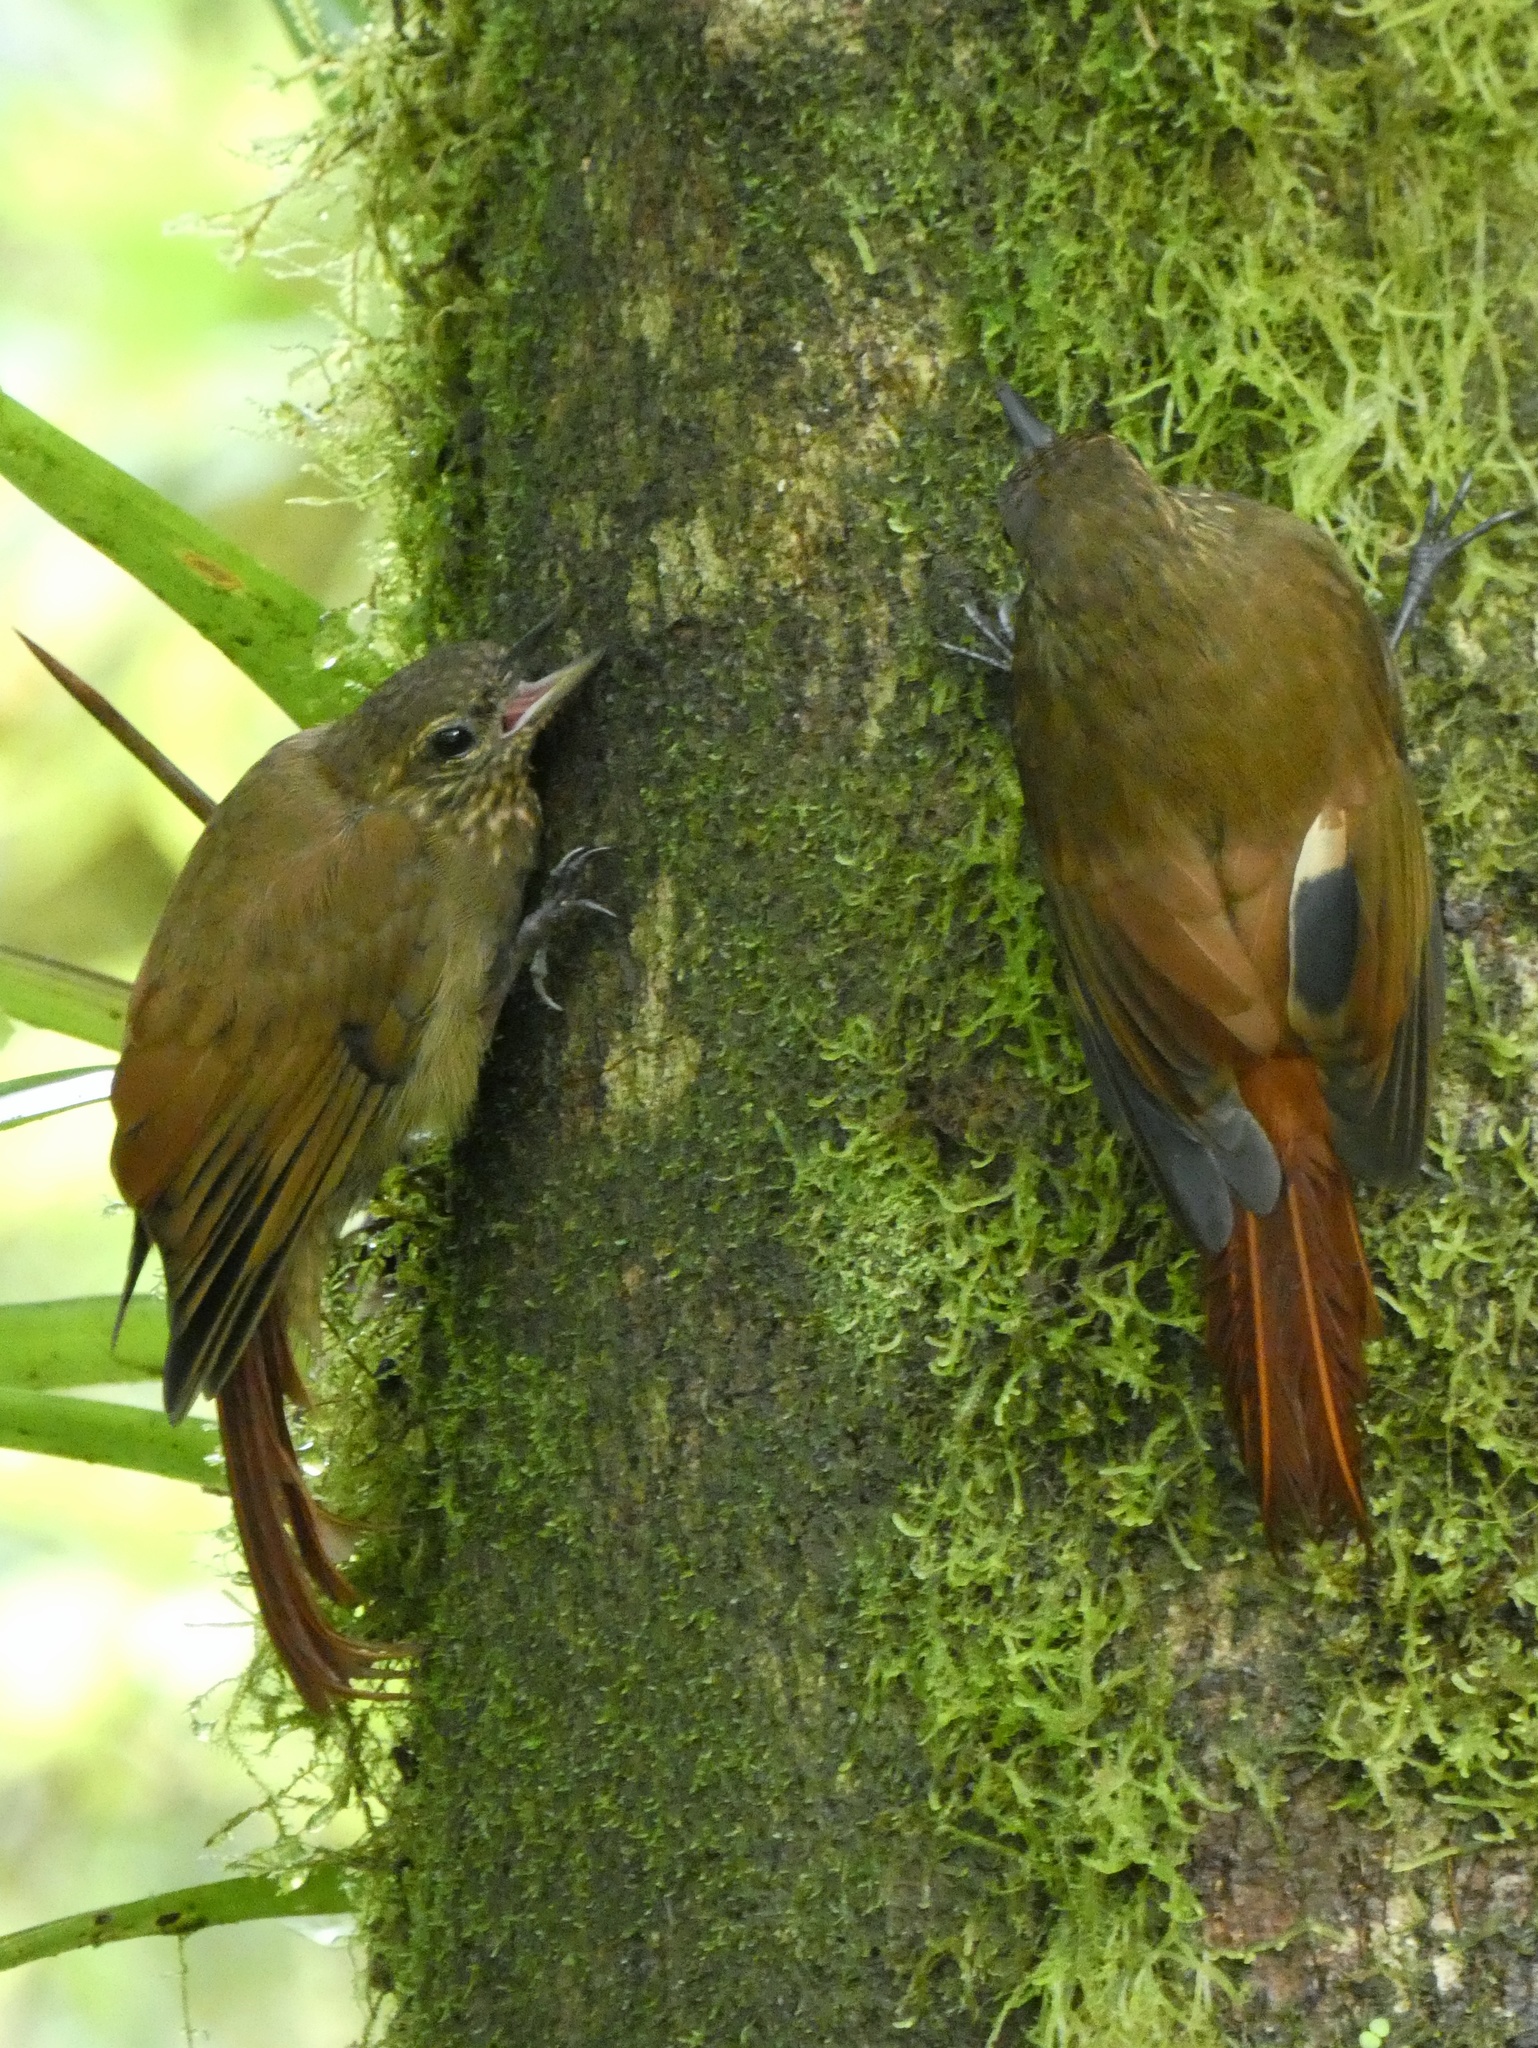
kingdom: Animalia
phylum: Chordata
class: Aves
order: Passeriformes
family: Furnariidae
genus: Glyphorynchus
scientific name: Glyphorynchus spirurus
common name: Wedge-billed woodcreeper
